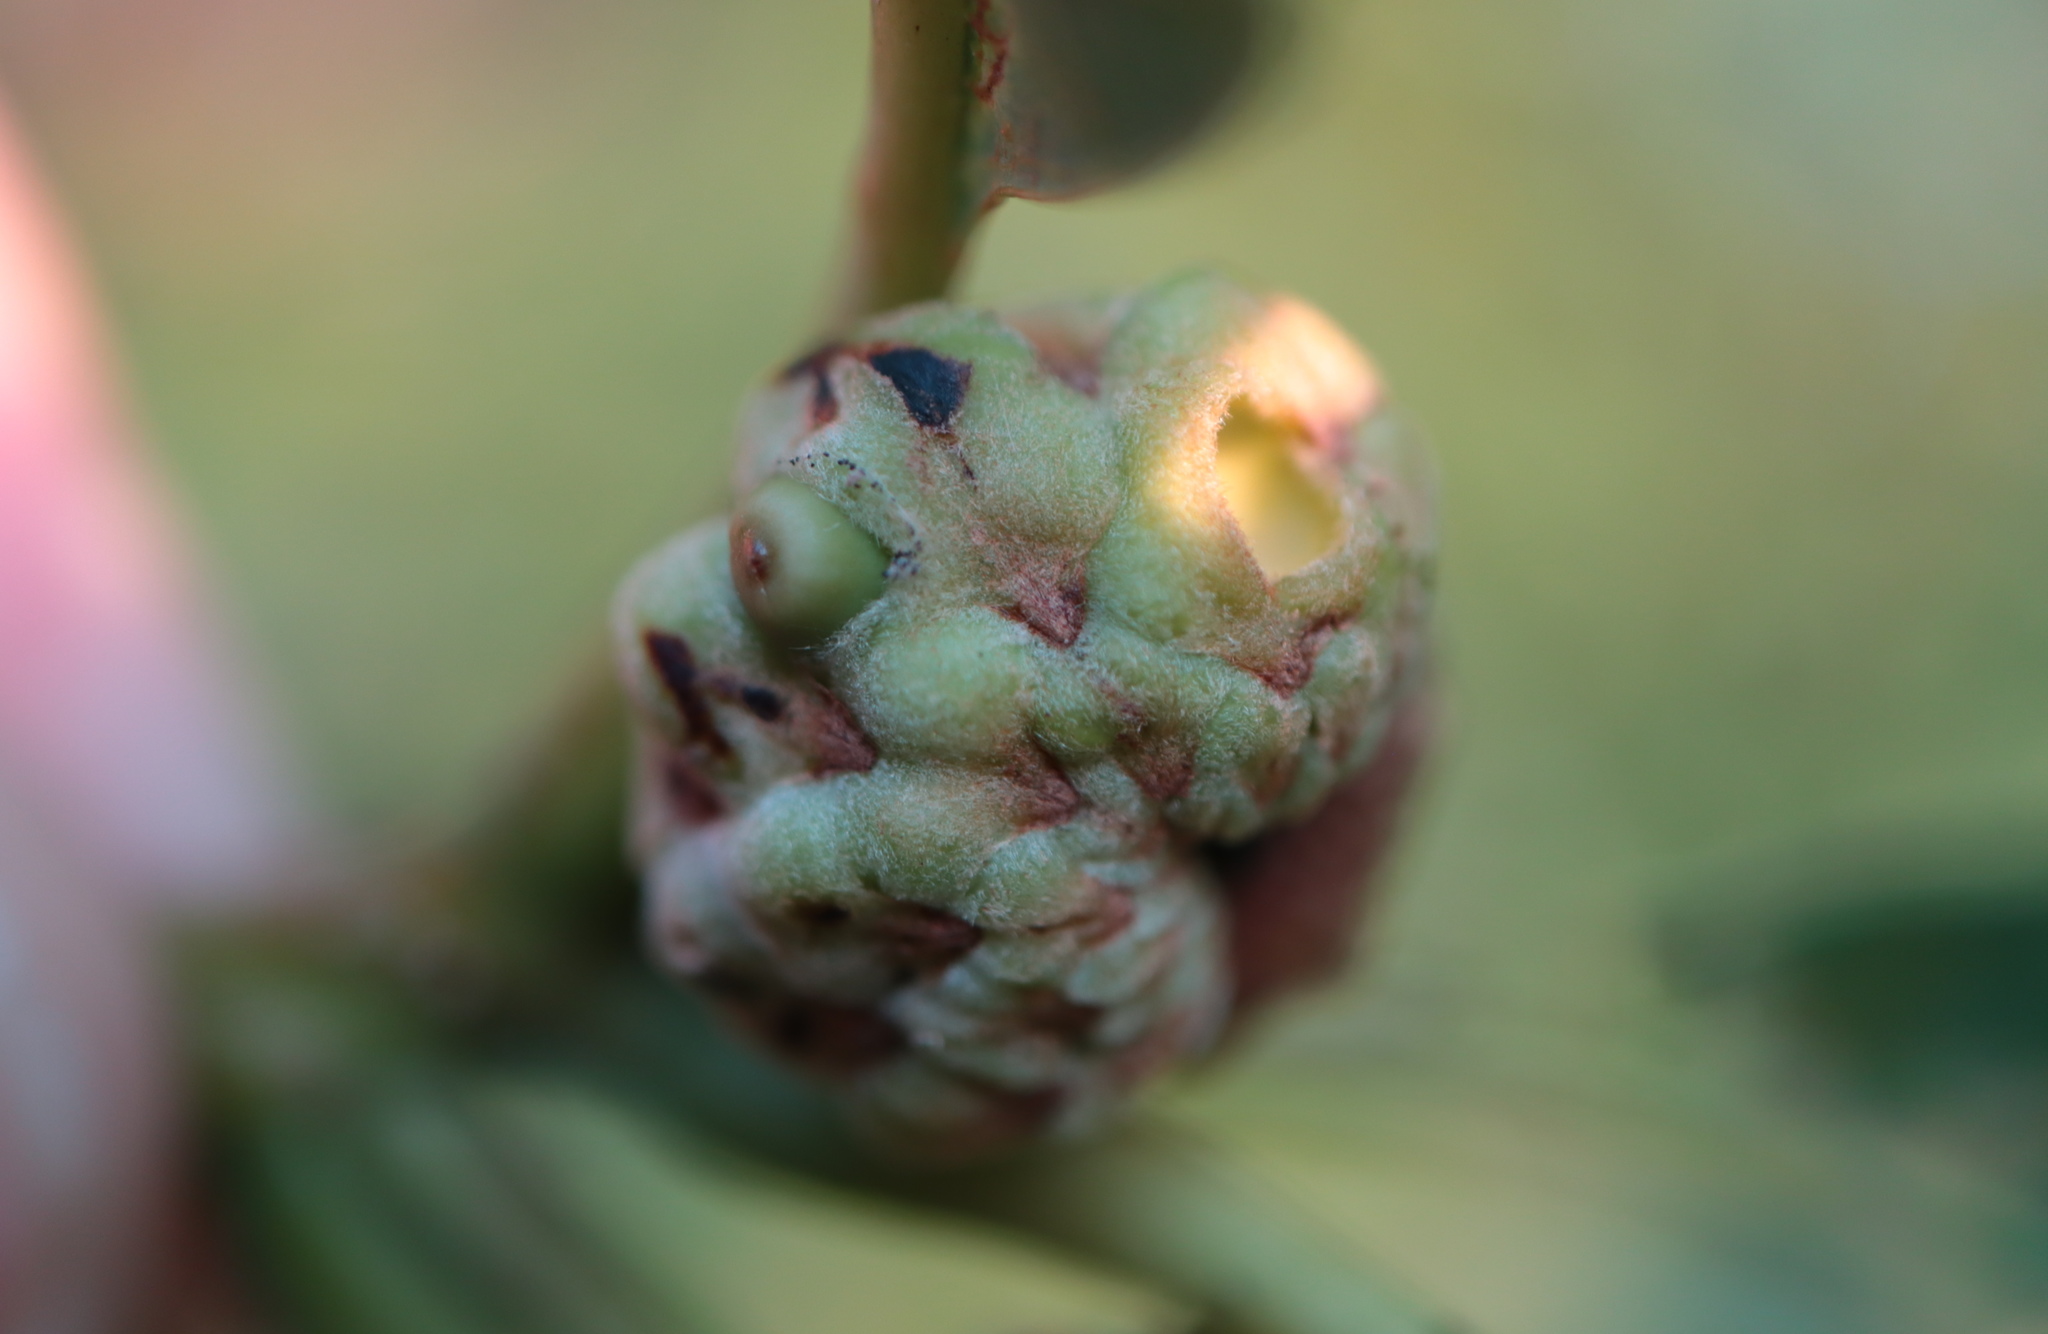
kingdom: Animalia
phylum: Arthropoda
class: Insecta
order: Hymenoptera
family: Cynipidae
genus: Callirhytis
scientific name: Callirhytis glandium
